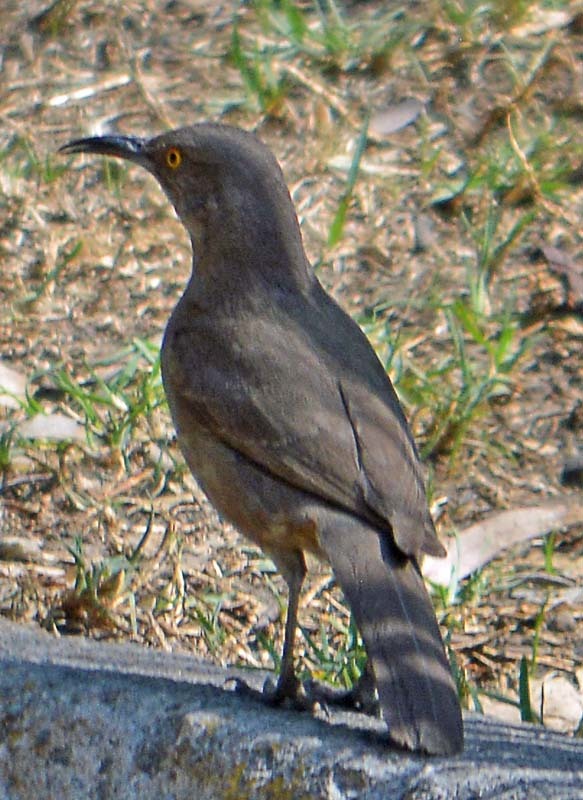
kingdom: Animalia
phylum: Chordata
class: Aves
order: Passeriformes
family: Mimidae
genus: Toxostoma
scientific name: Toxostoma curvirostre
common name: Curve-billed thrasher
